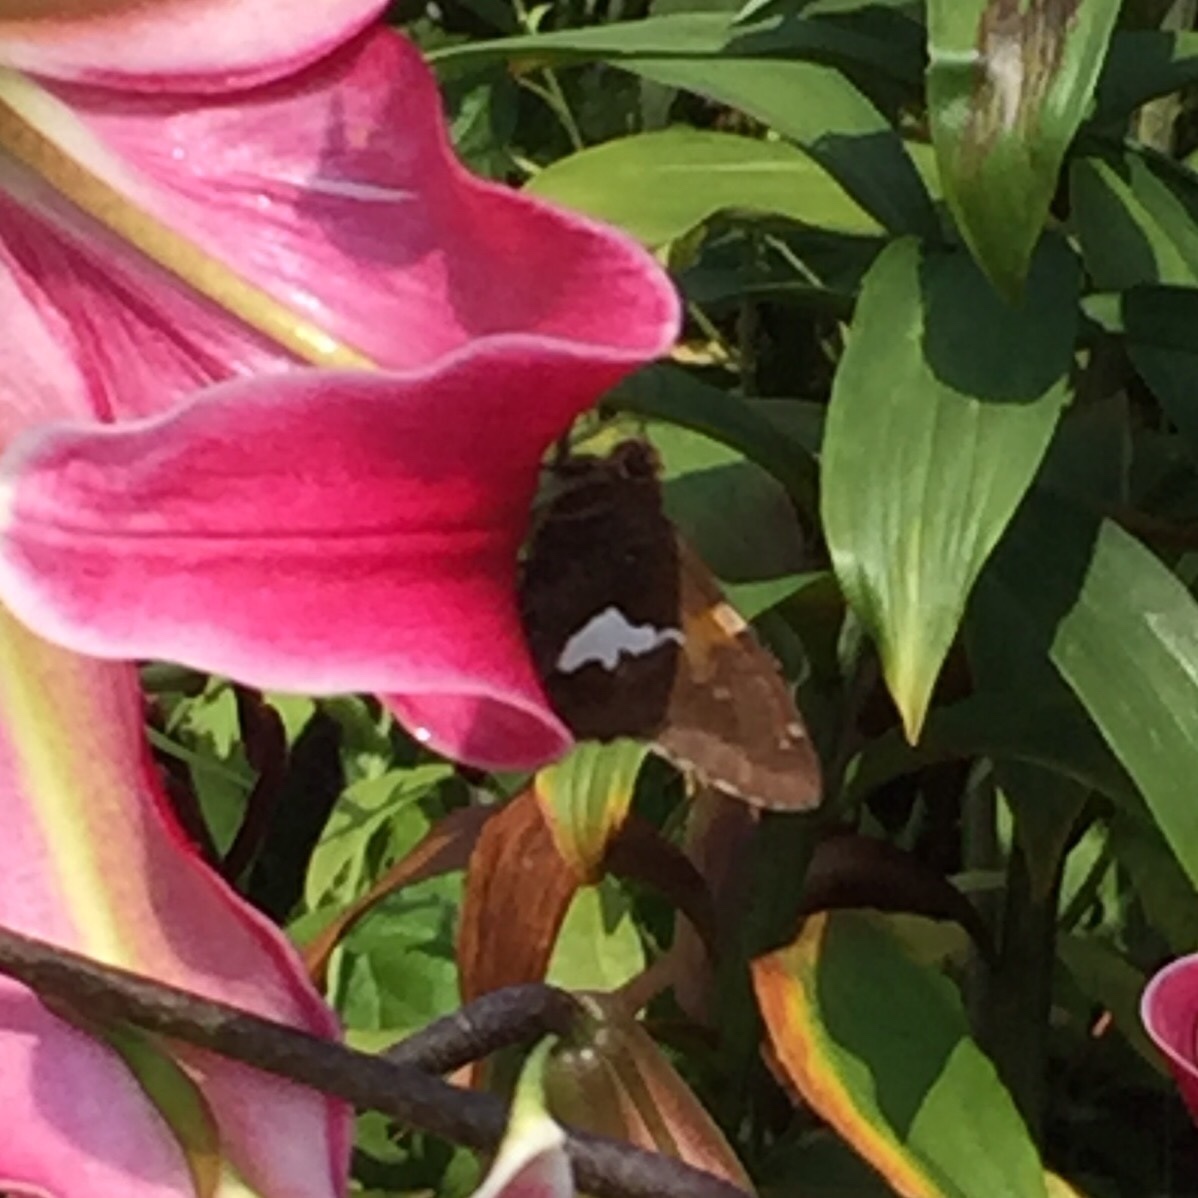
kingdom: Animalia
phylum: Arthropoda
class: Insecta
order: Lepidoptera
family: Hesperiidae
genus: Epargyreus
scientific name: Epargyreus clarus
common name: Silver-spotted skipper
